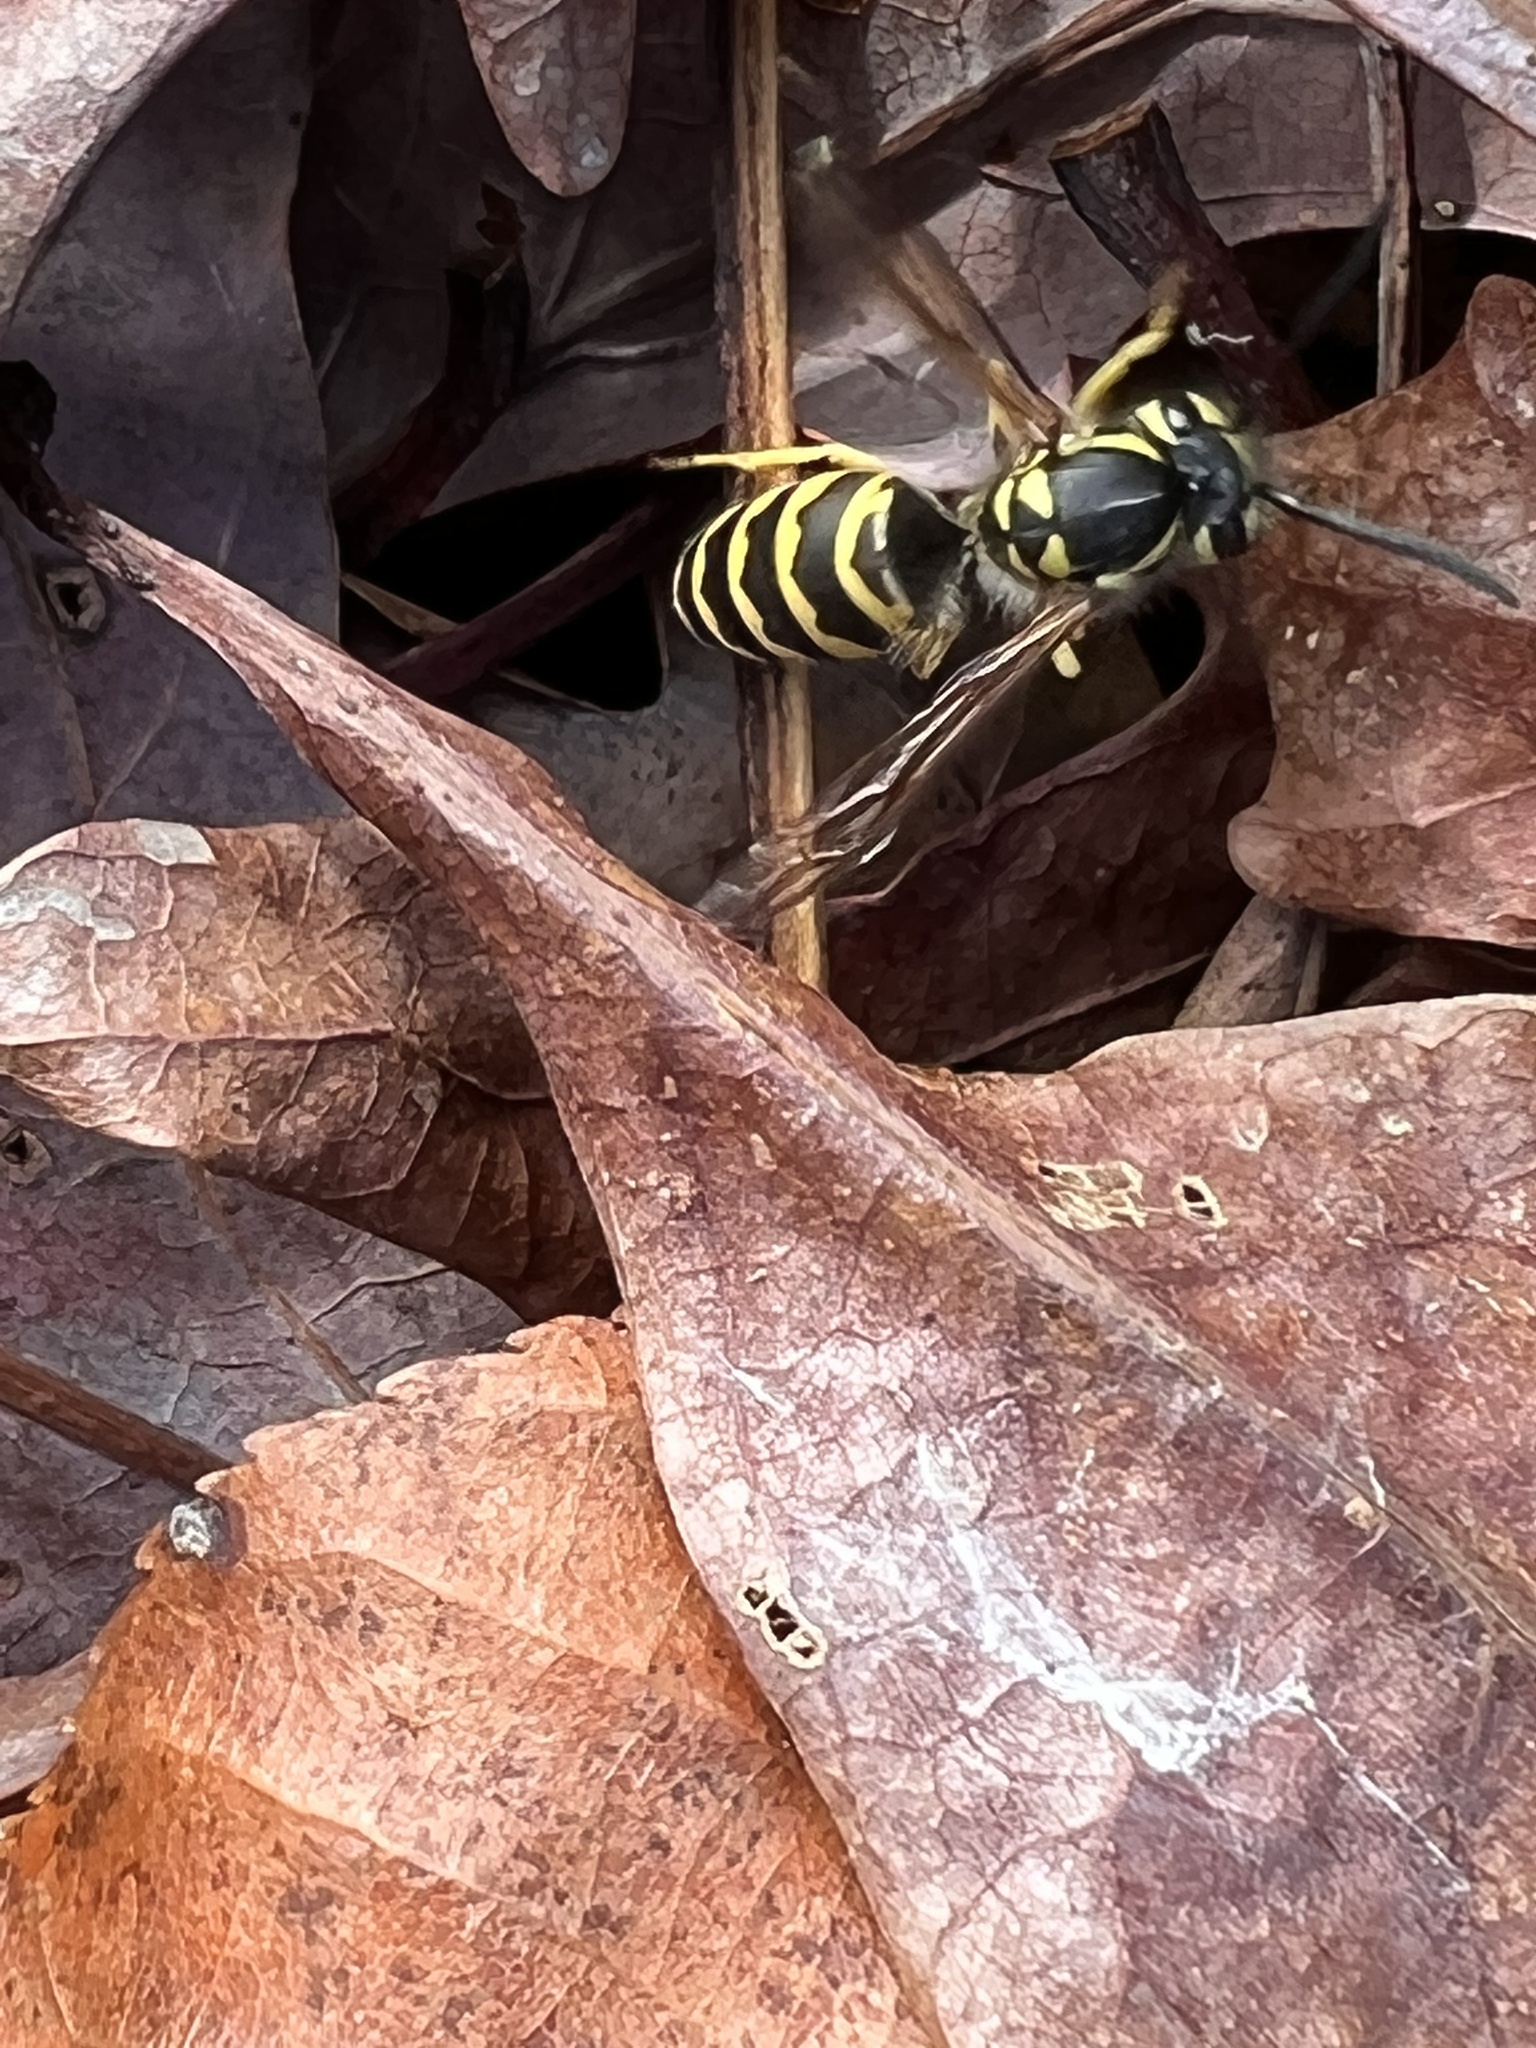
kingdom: Animalia
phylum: Arthropoda
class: Insecta
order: Hymenoptera
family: Vespidae
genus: Vespula
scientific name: Vespula maculifrons
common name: Eastern yellowjacket
